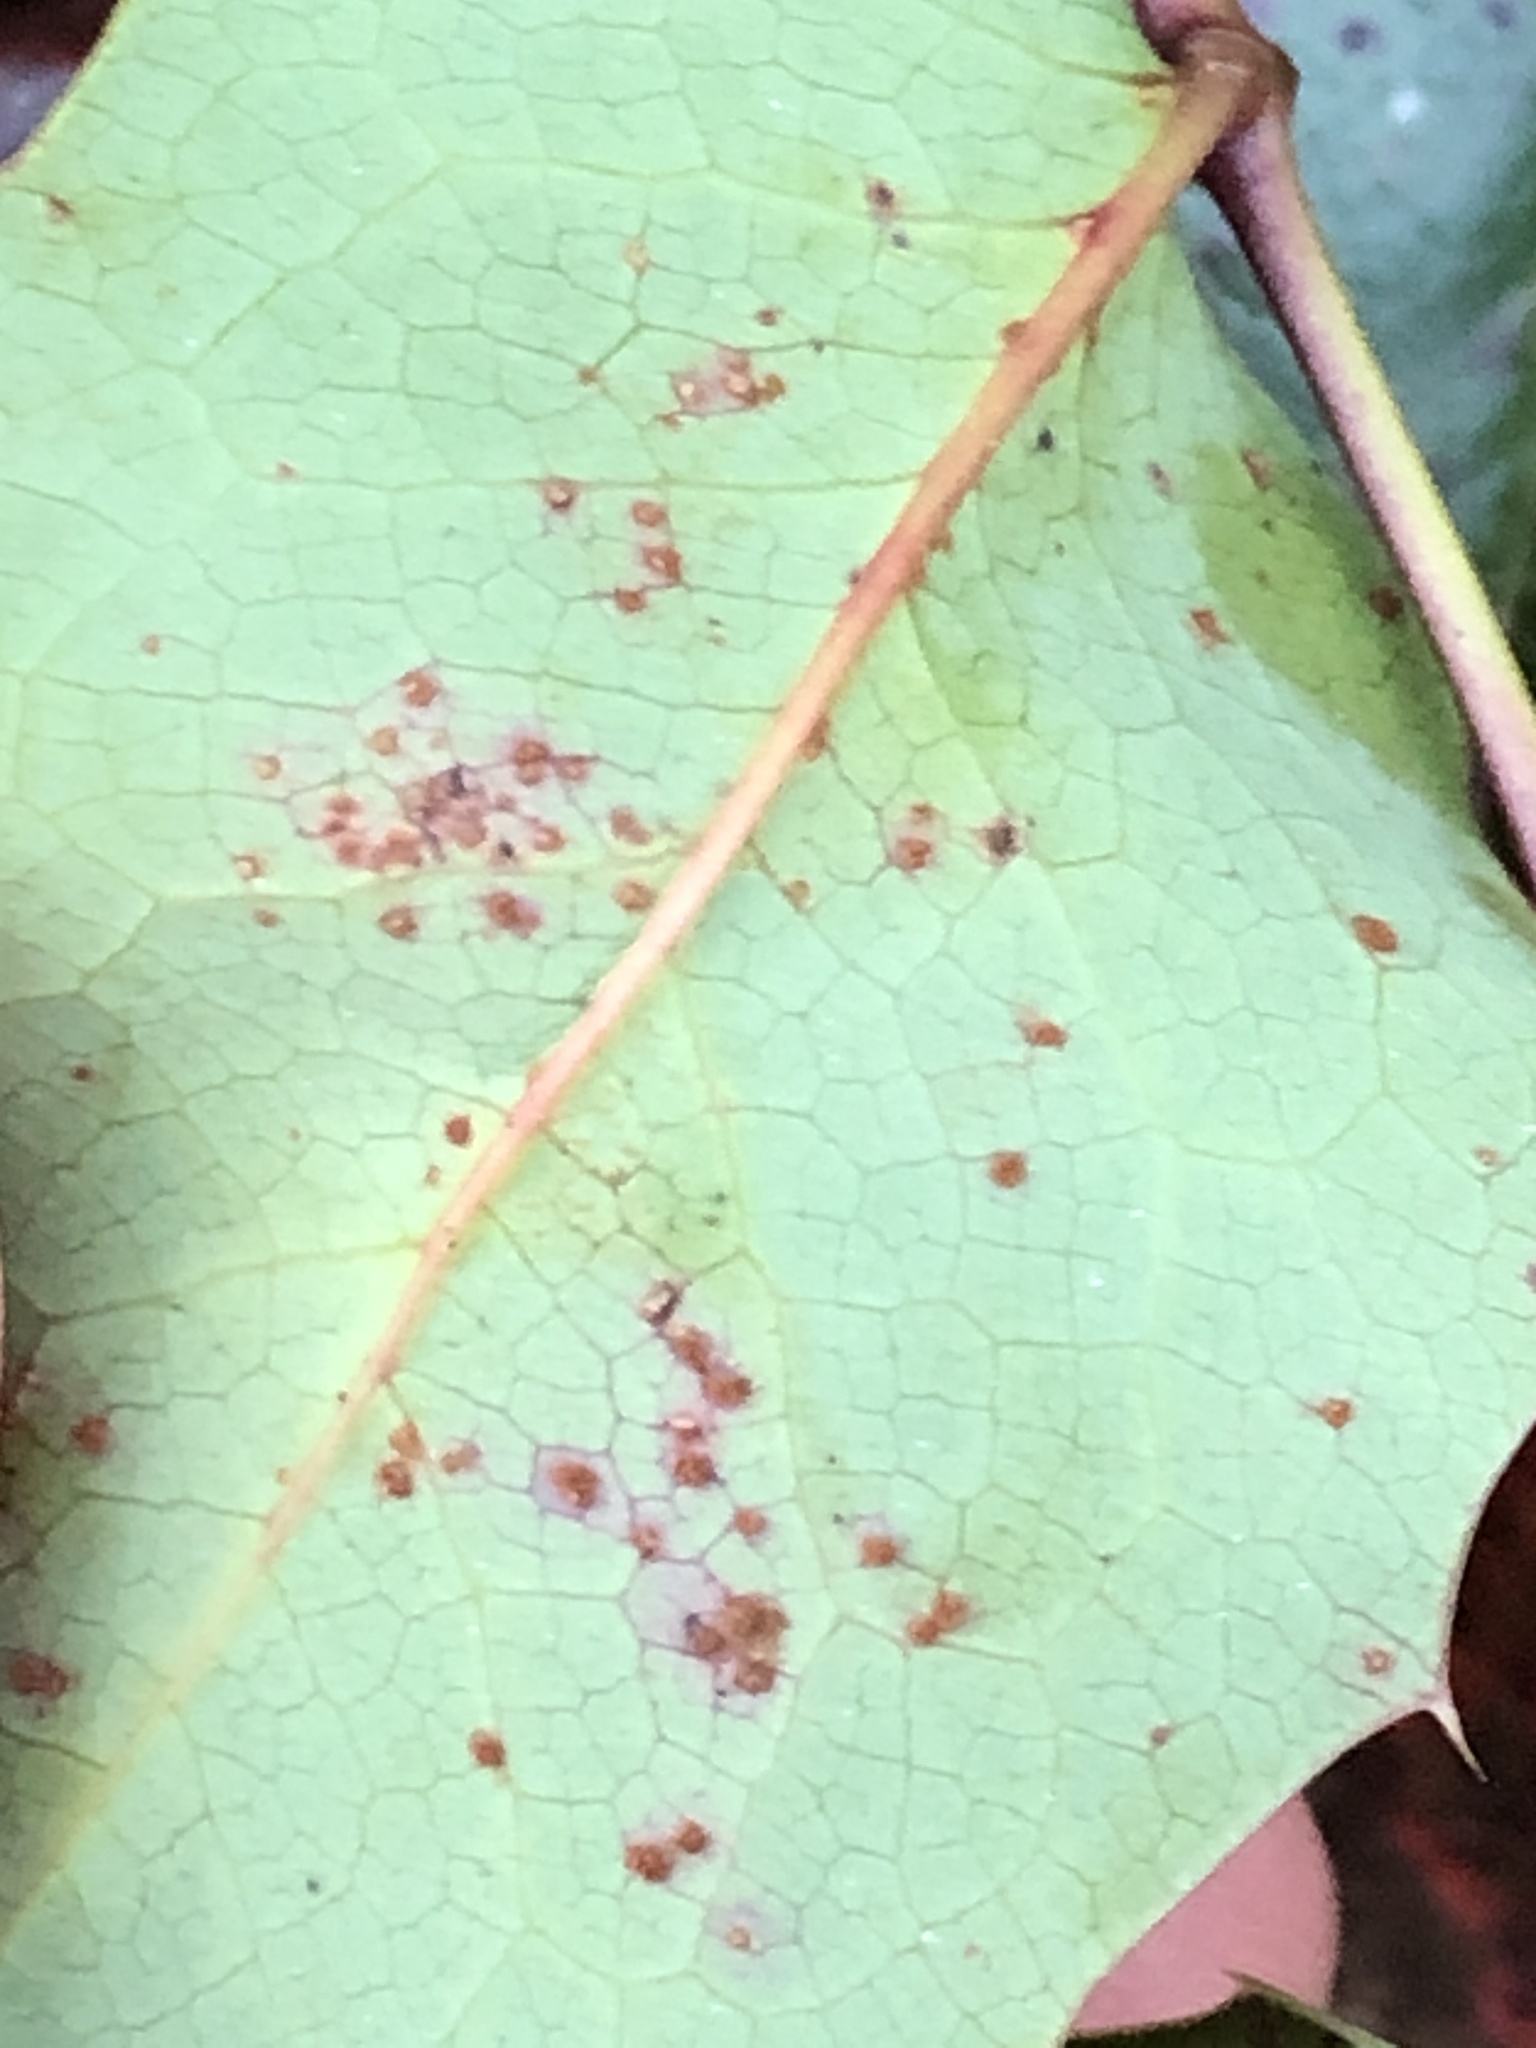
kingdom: Fungi
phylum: Basidiomycota
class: Pucciniomycetes
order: Pucciniales
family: Pucciniaceae
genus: Cumminsiella
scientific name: Cumminsiella mirabilissima
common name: Mahonia rust
